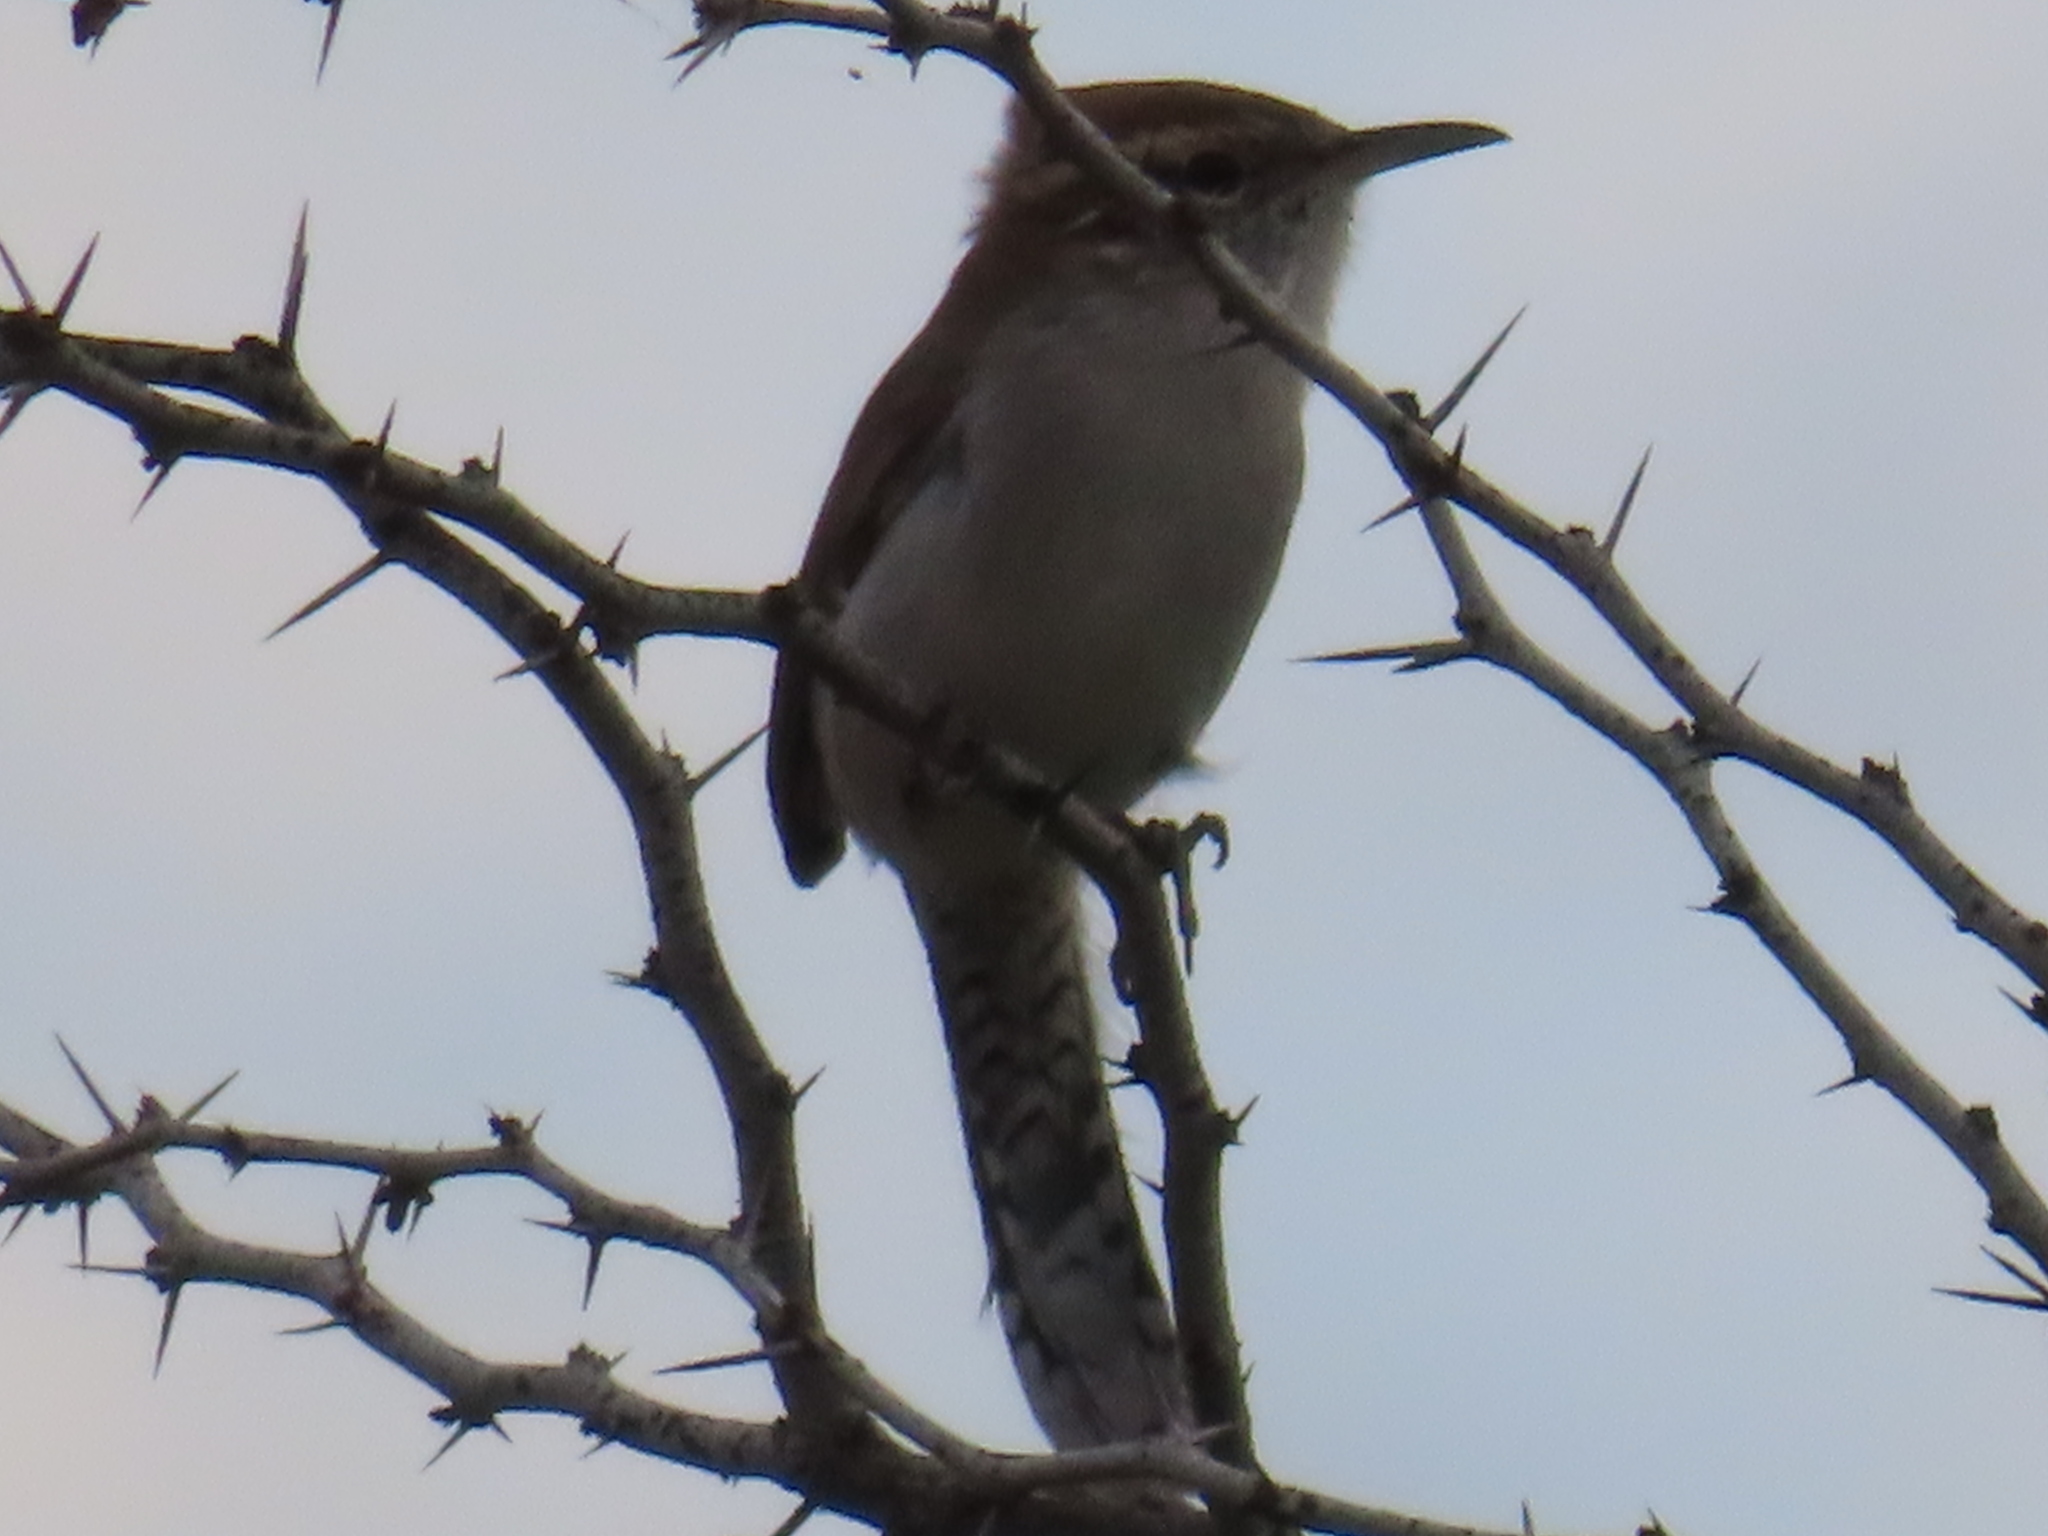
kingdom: Animalia
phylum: Chordata
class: Aves
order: Passeriformes
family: Troglodytidae
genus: Thryomanes
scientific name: Thryomanes bewickii
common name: Bewick's wren
